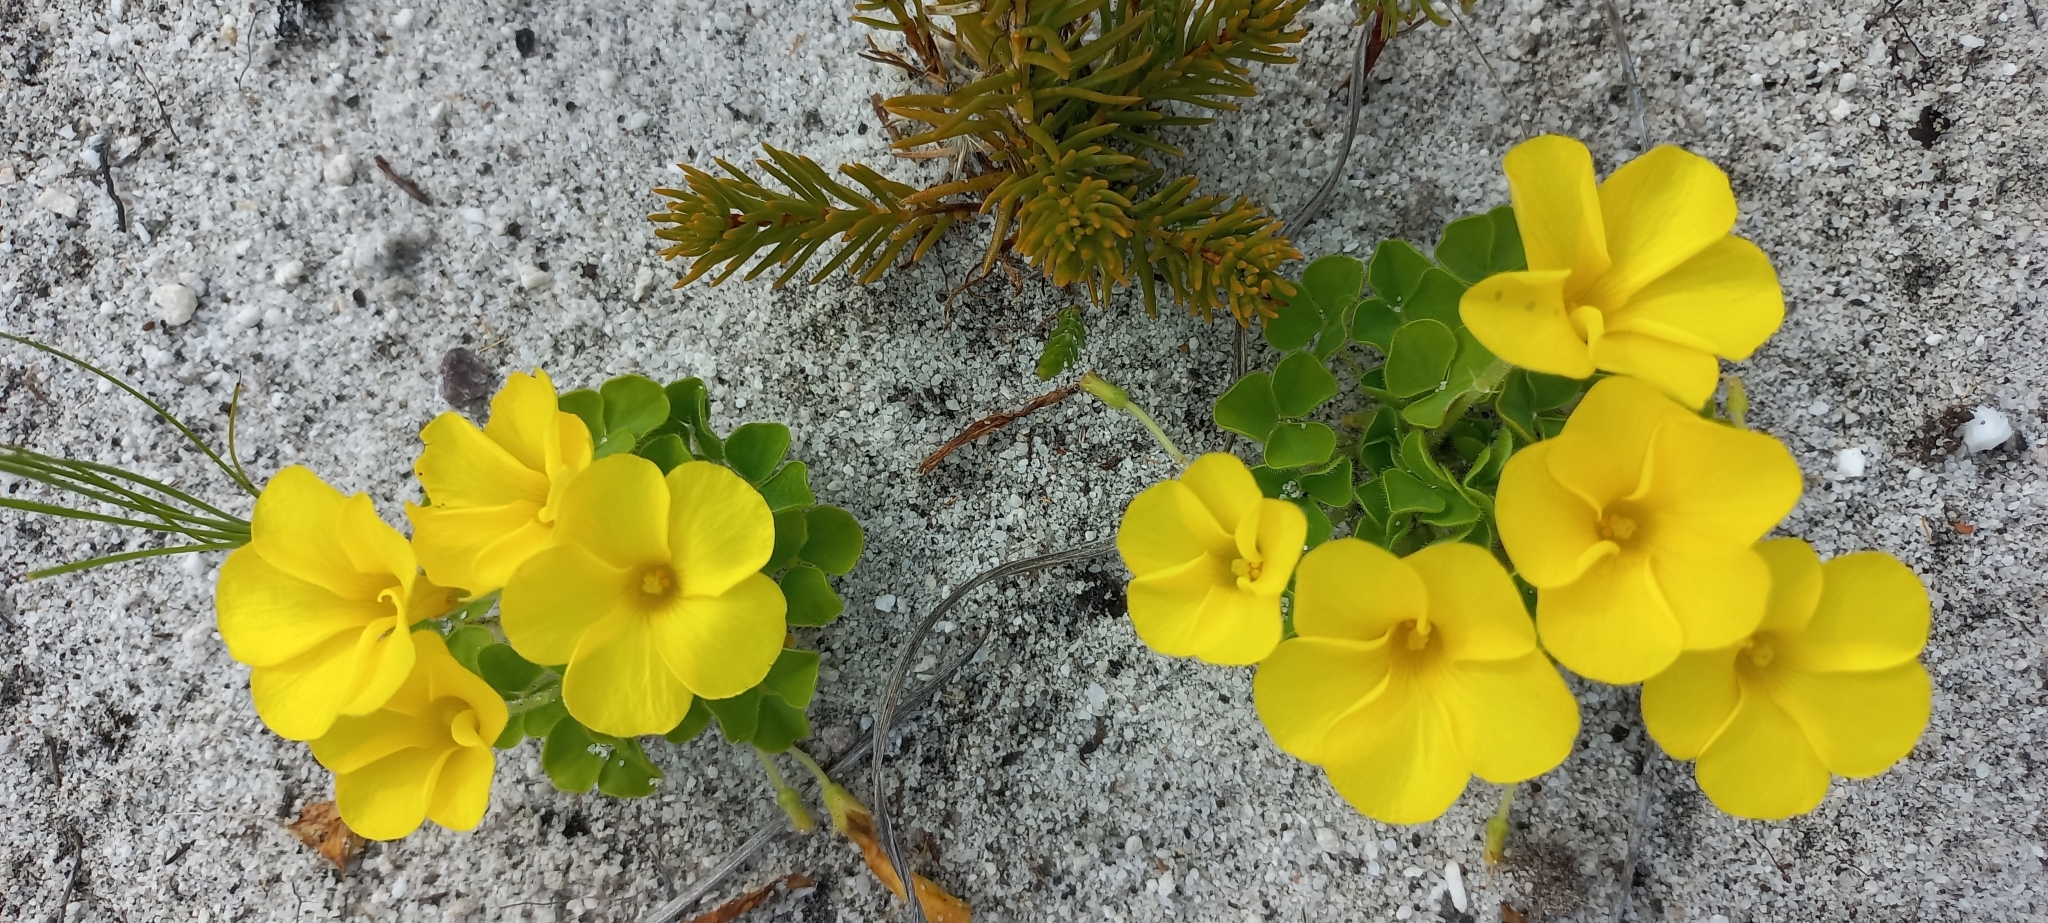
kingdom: Plantae
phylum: Tracheophyta
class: Magnoliopsida
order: Oxalidales
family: Oxalidaceae
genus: Oxalis
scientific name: Oxalis luteola
